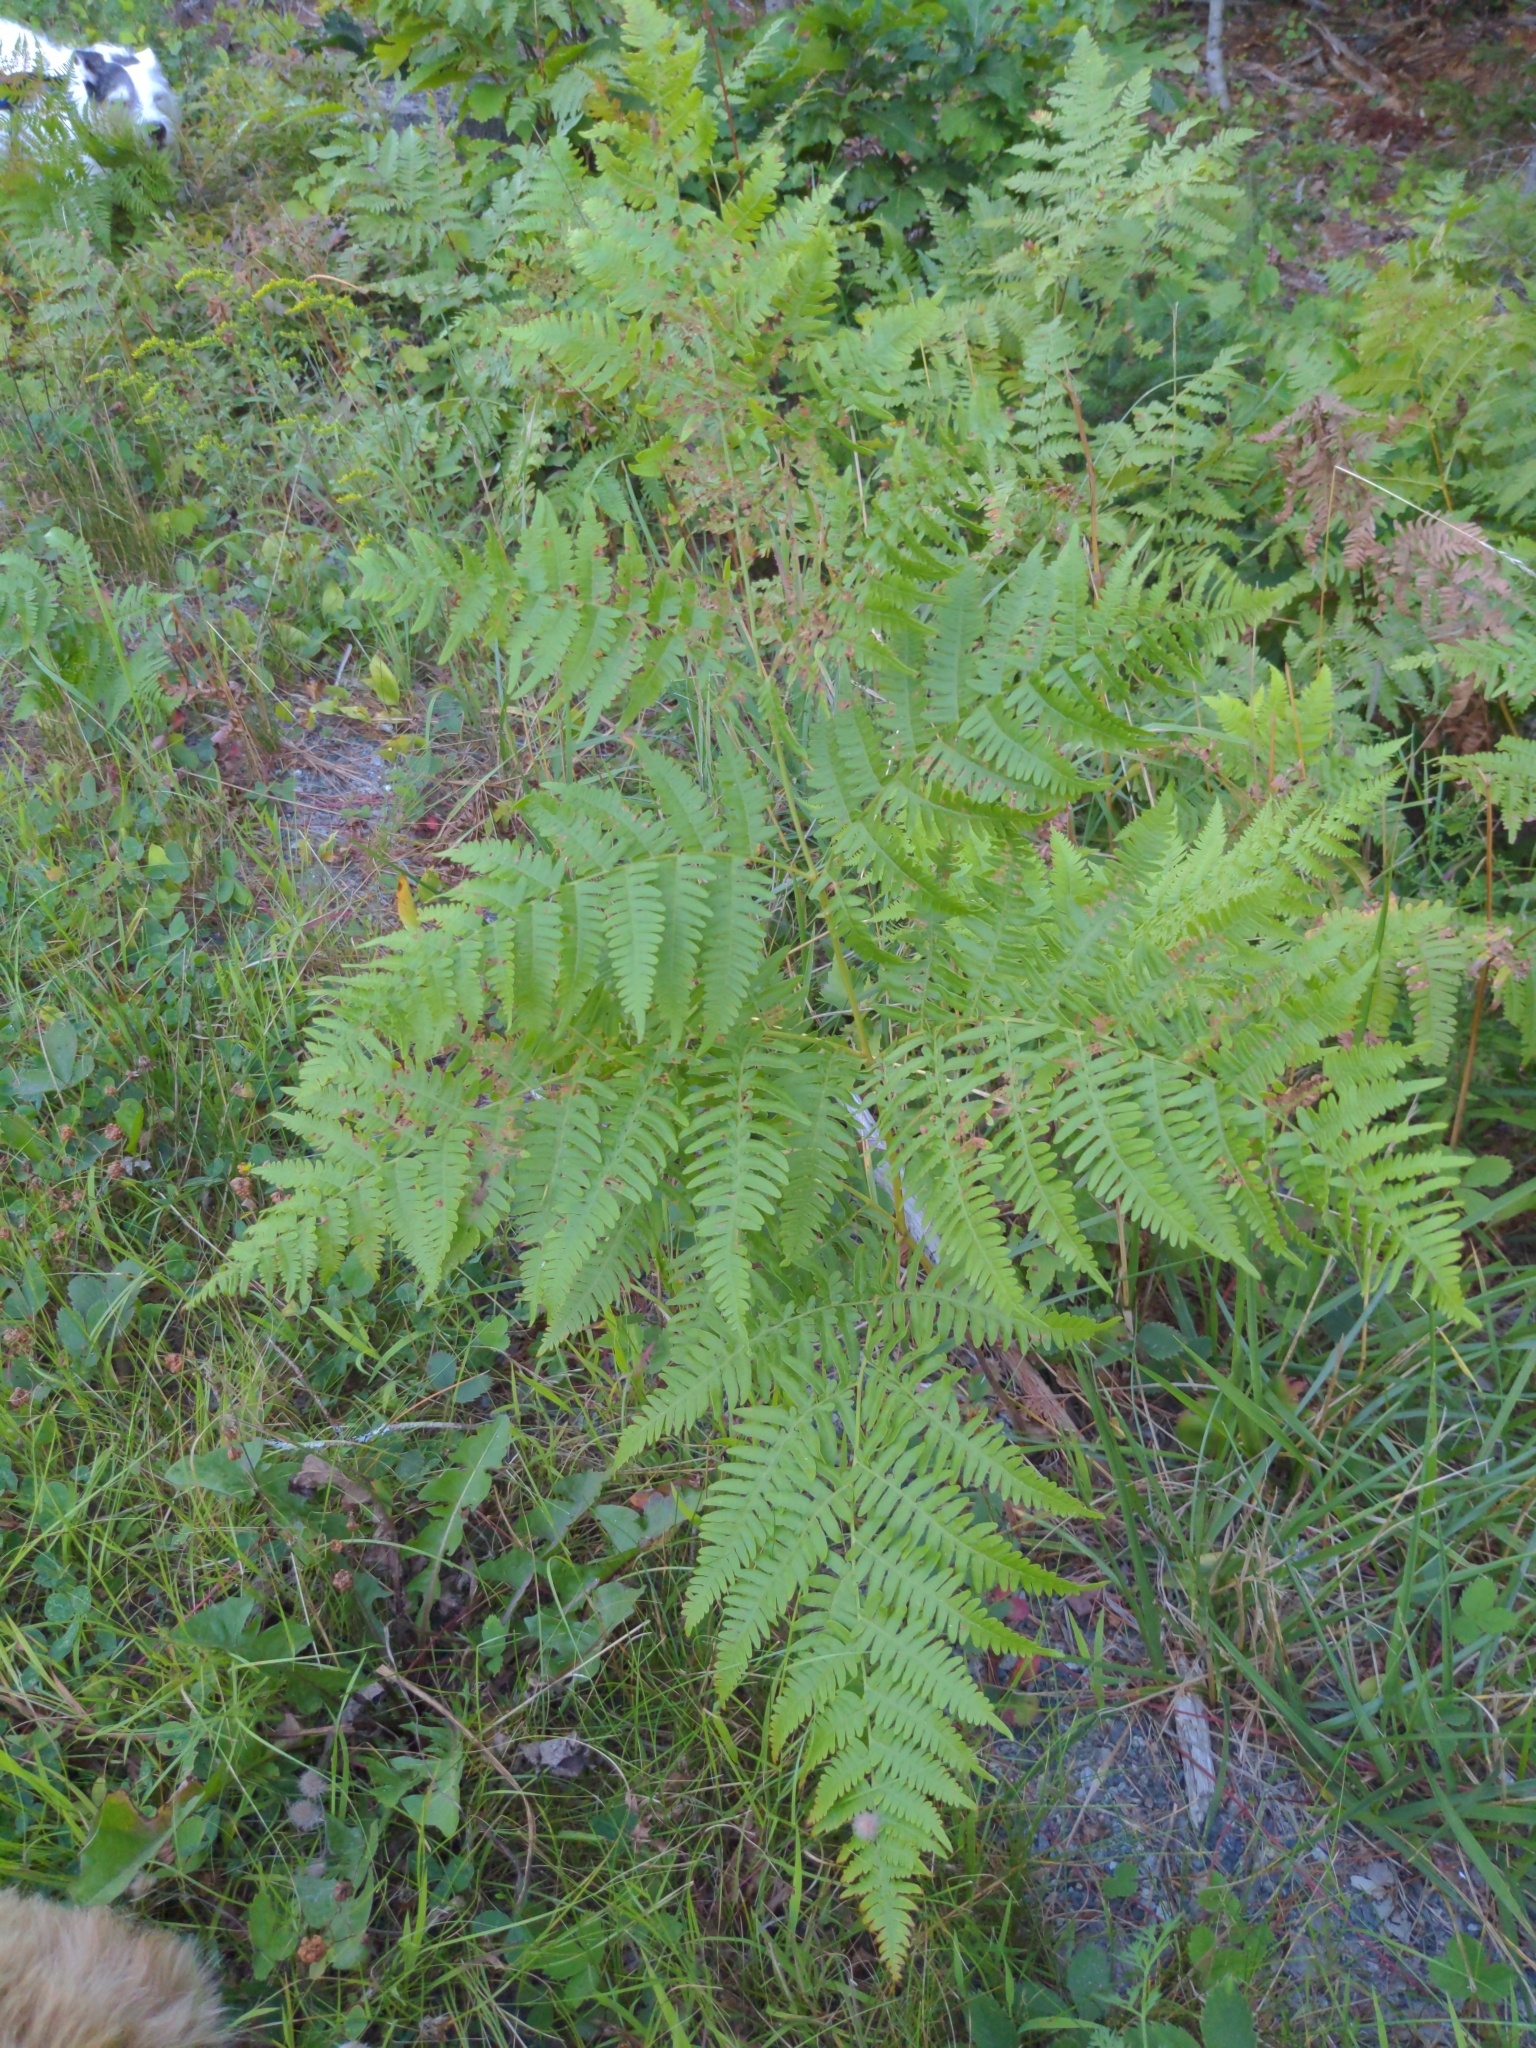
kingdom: Plantae
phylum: Tracheophyta
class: Polypodiopsida
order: Polypodiales
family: Dennstaedtiaceae
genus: Pteridium
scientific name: Pteridium aquilinum
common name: Bracken
